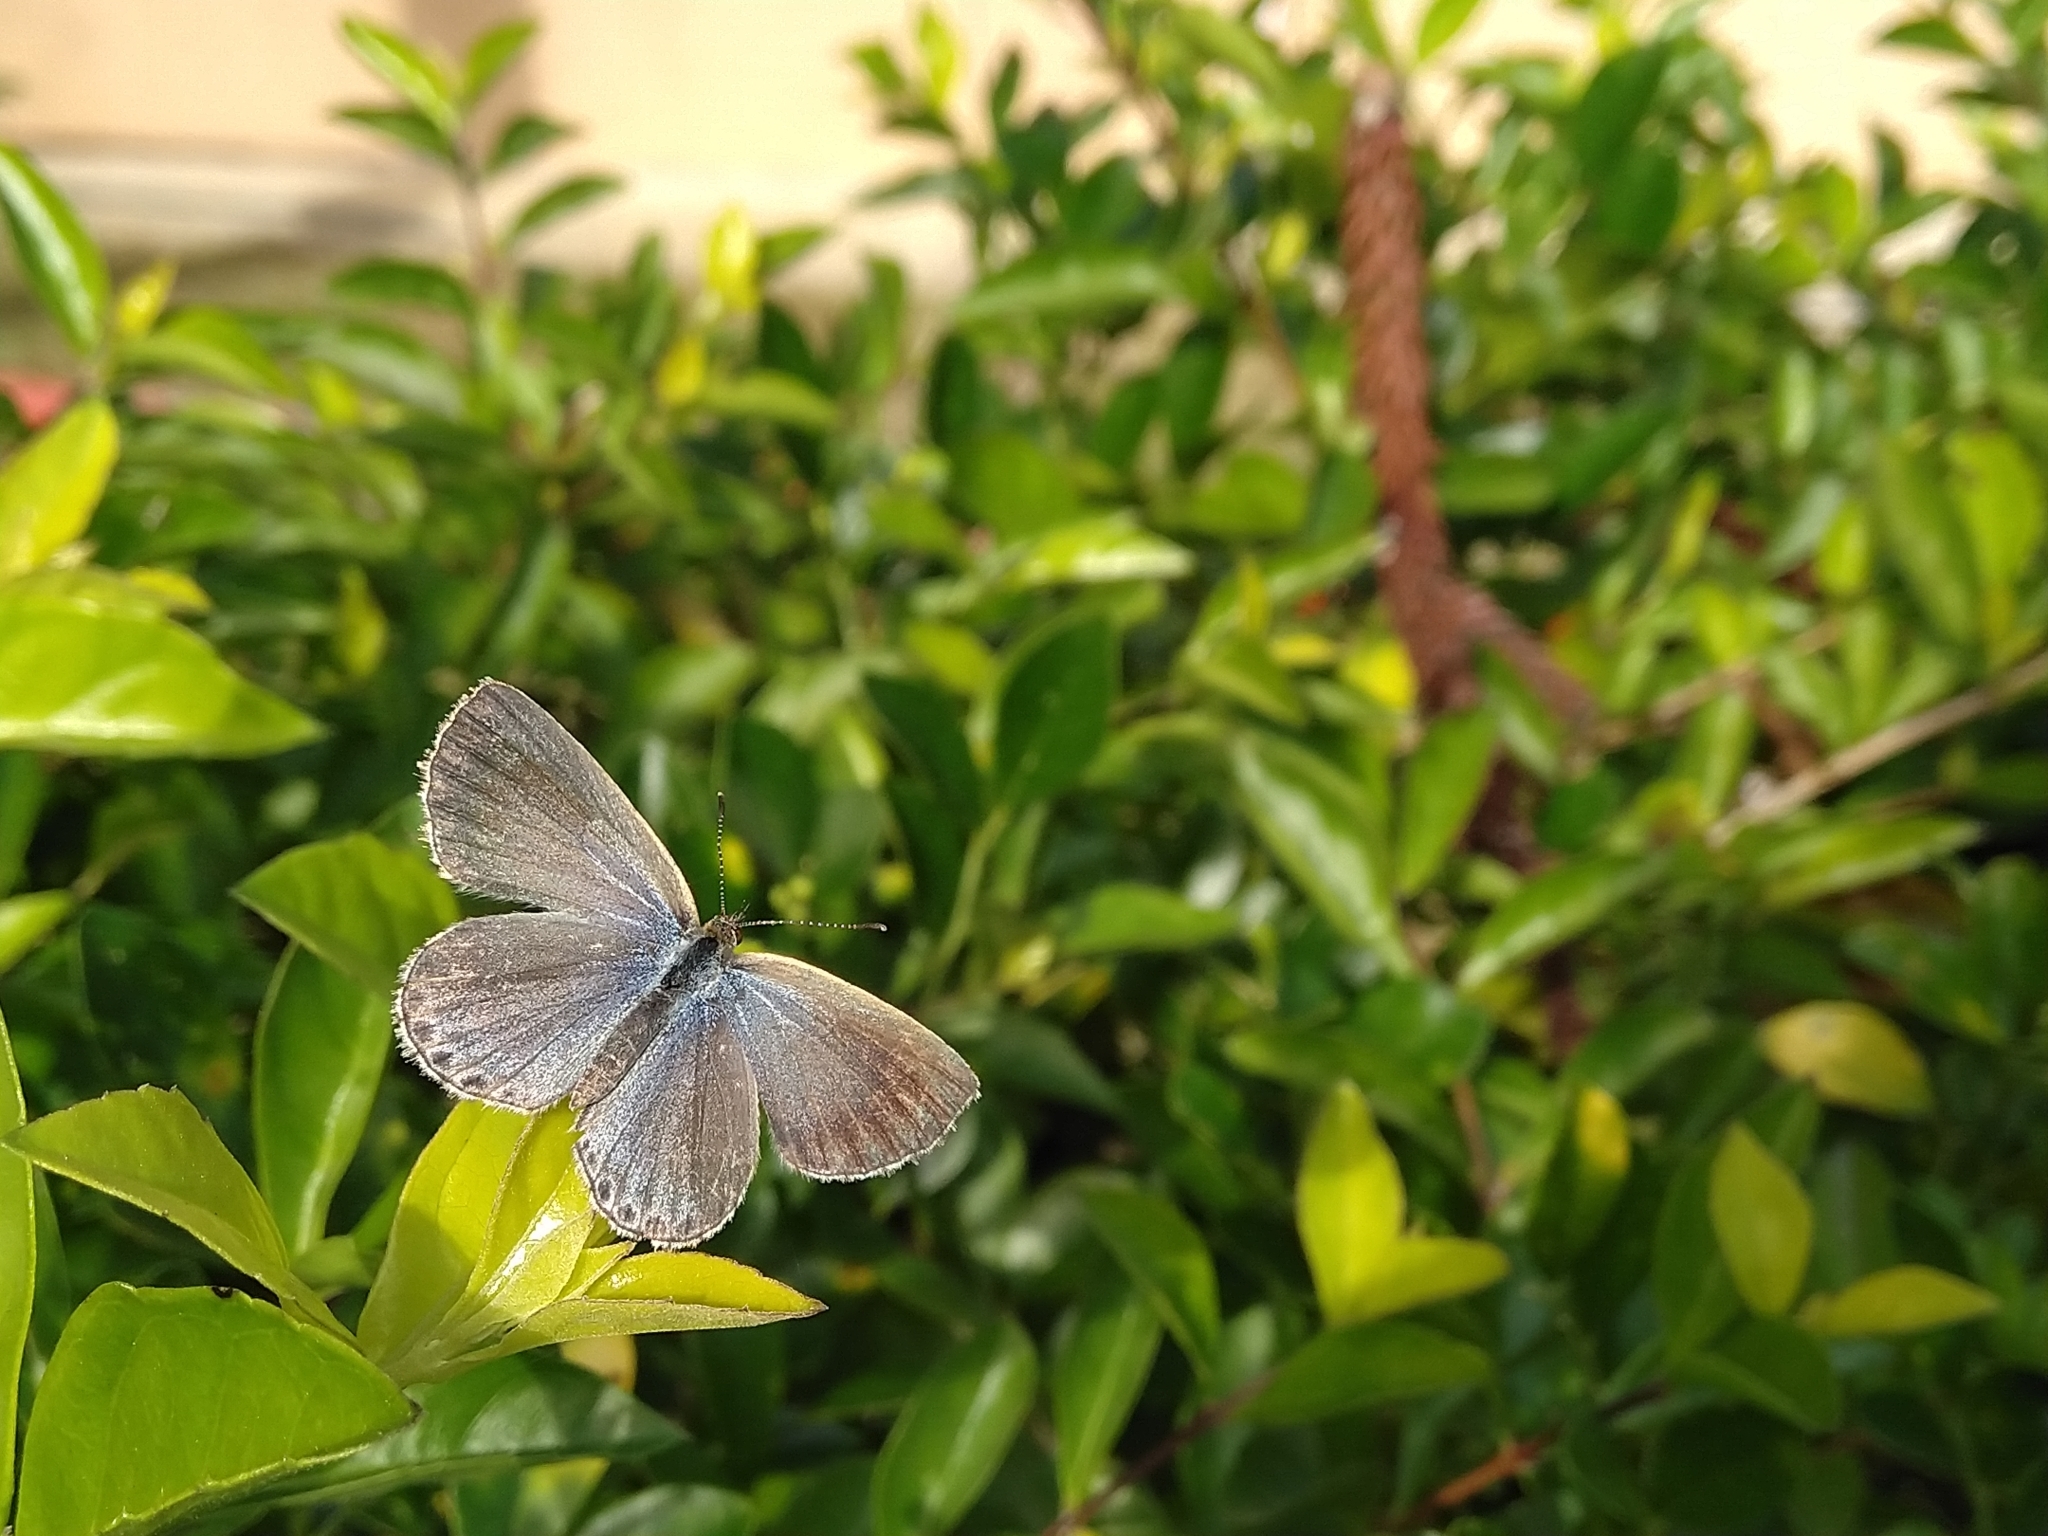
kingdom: Animalia
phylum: Arthropoda
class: Insecta
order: Lepidoptera
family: Lycaenidae
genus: Pseudozizeeria
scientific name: Pseudozizeeria maha
